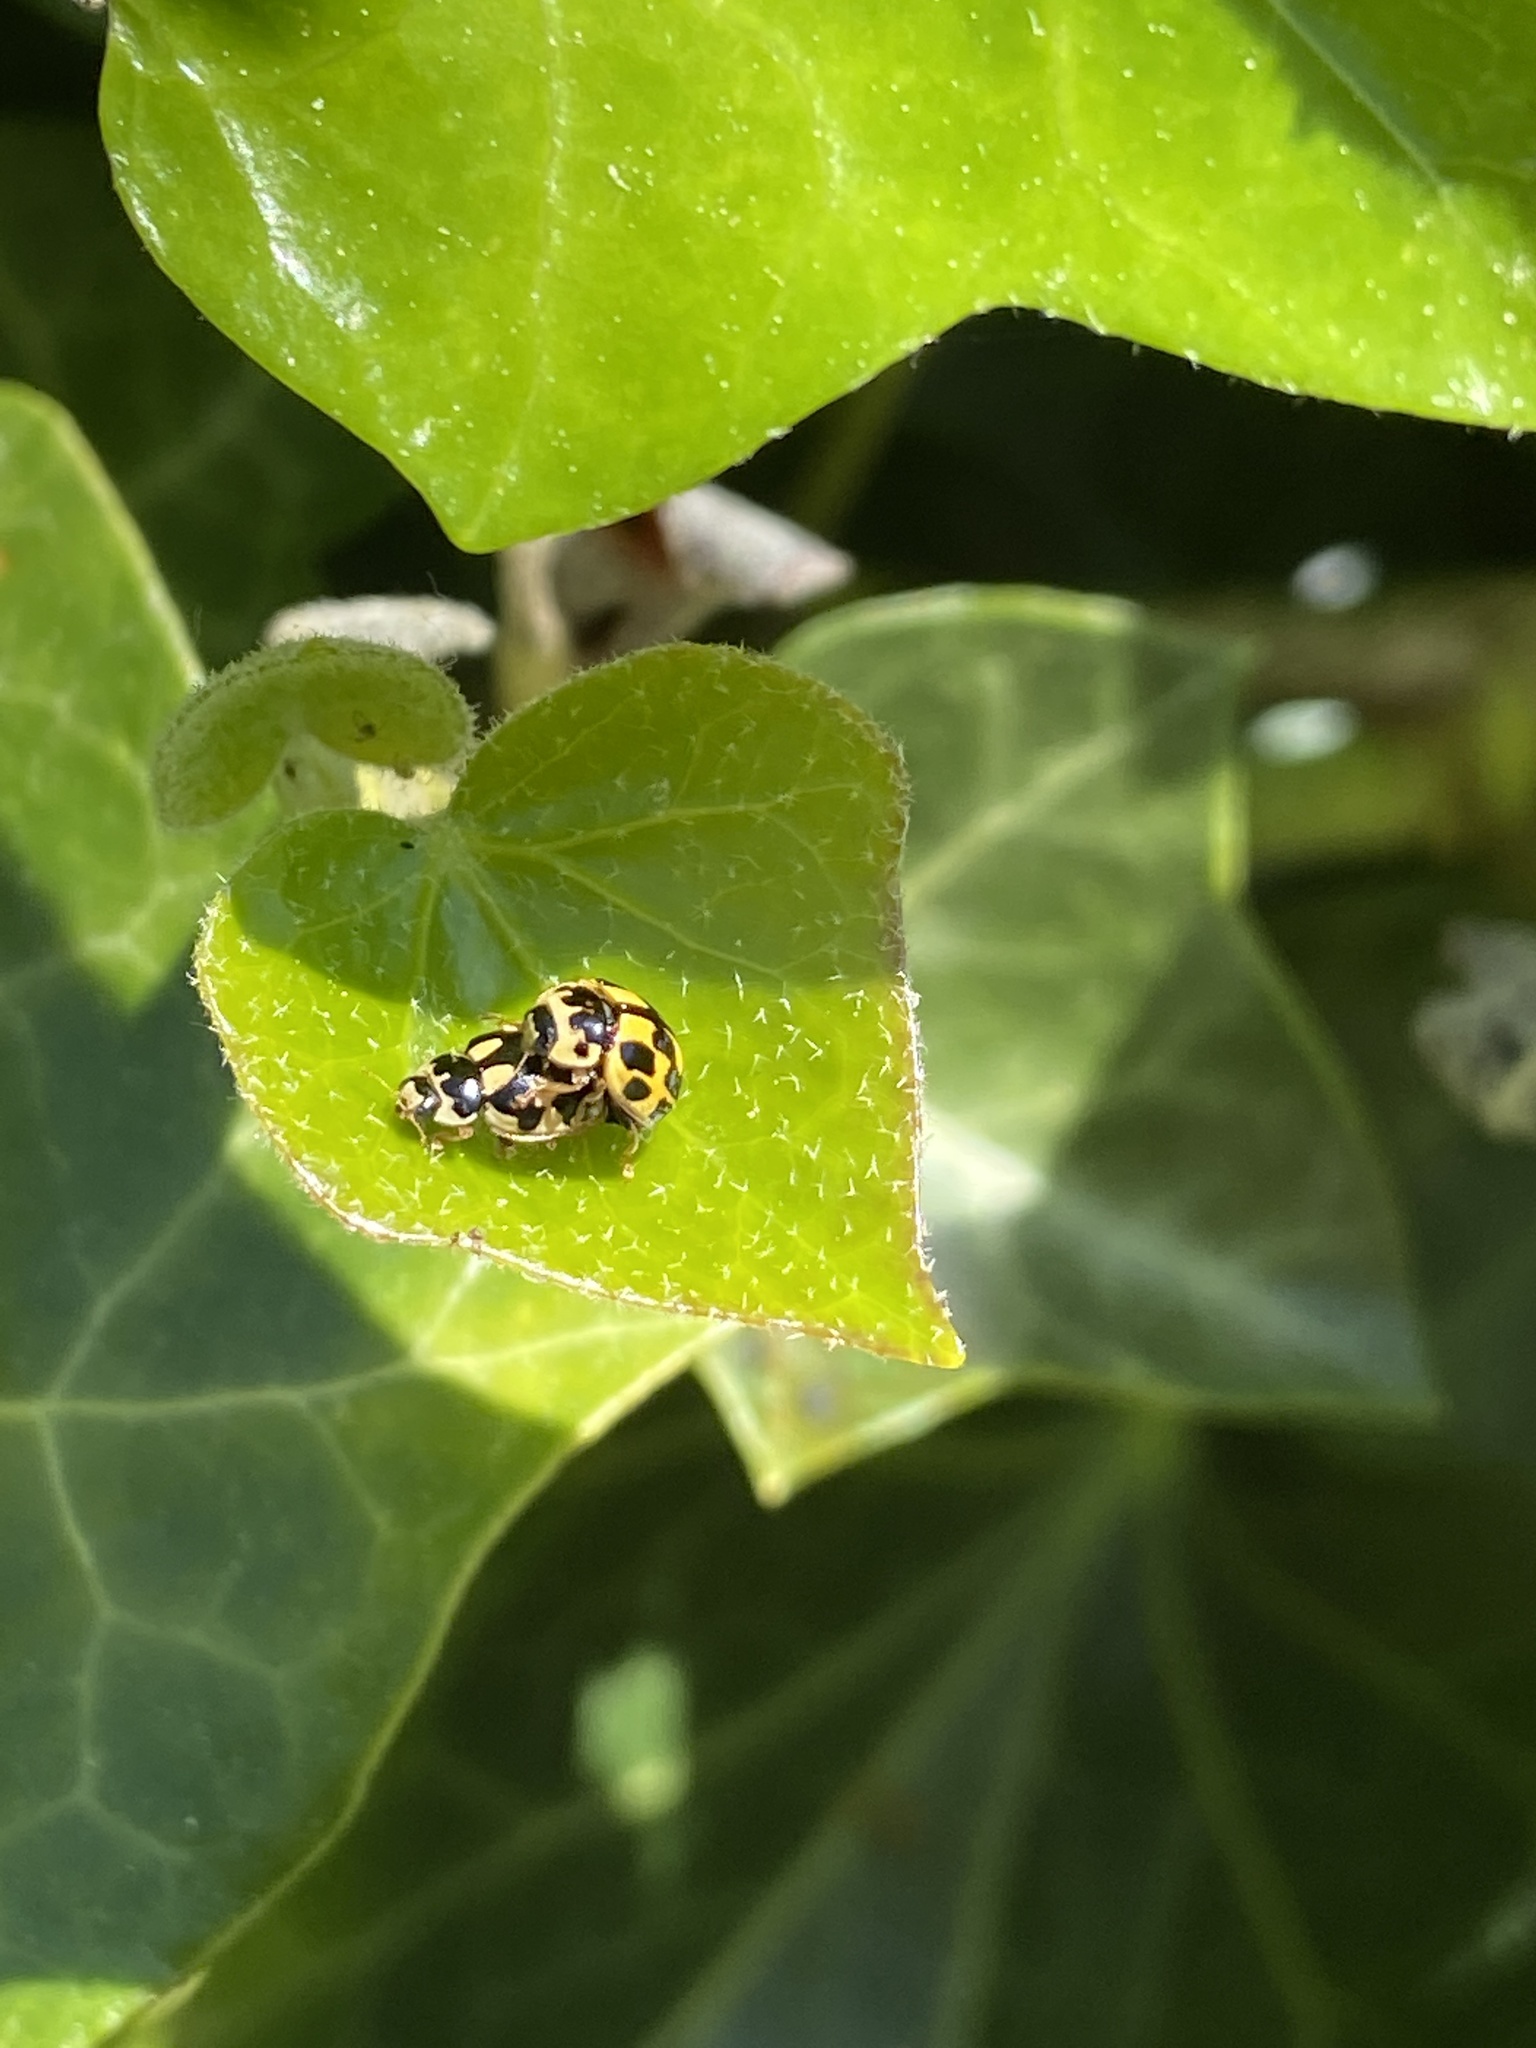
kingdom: Animalia
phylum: Arthropoda
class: Insecta
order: Coleoptera
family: Coccinellidae
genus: Propylaea
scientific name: Propylaea quatuordecimpunctata
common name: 14-spotted ladybird beetle
